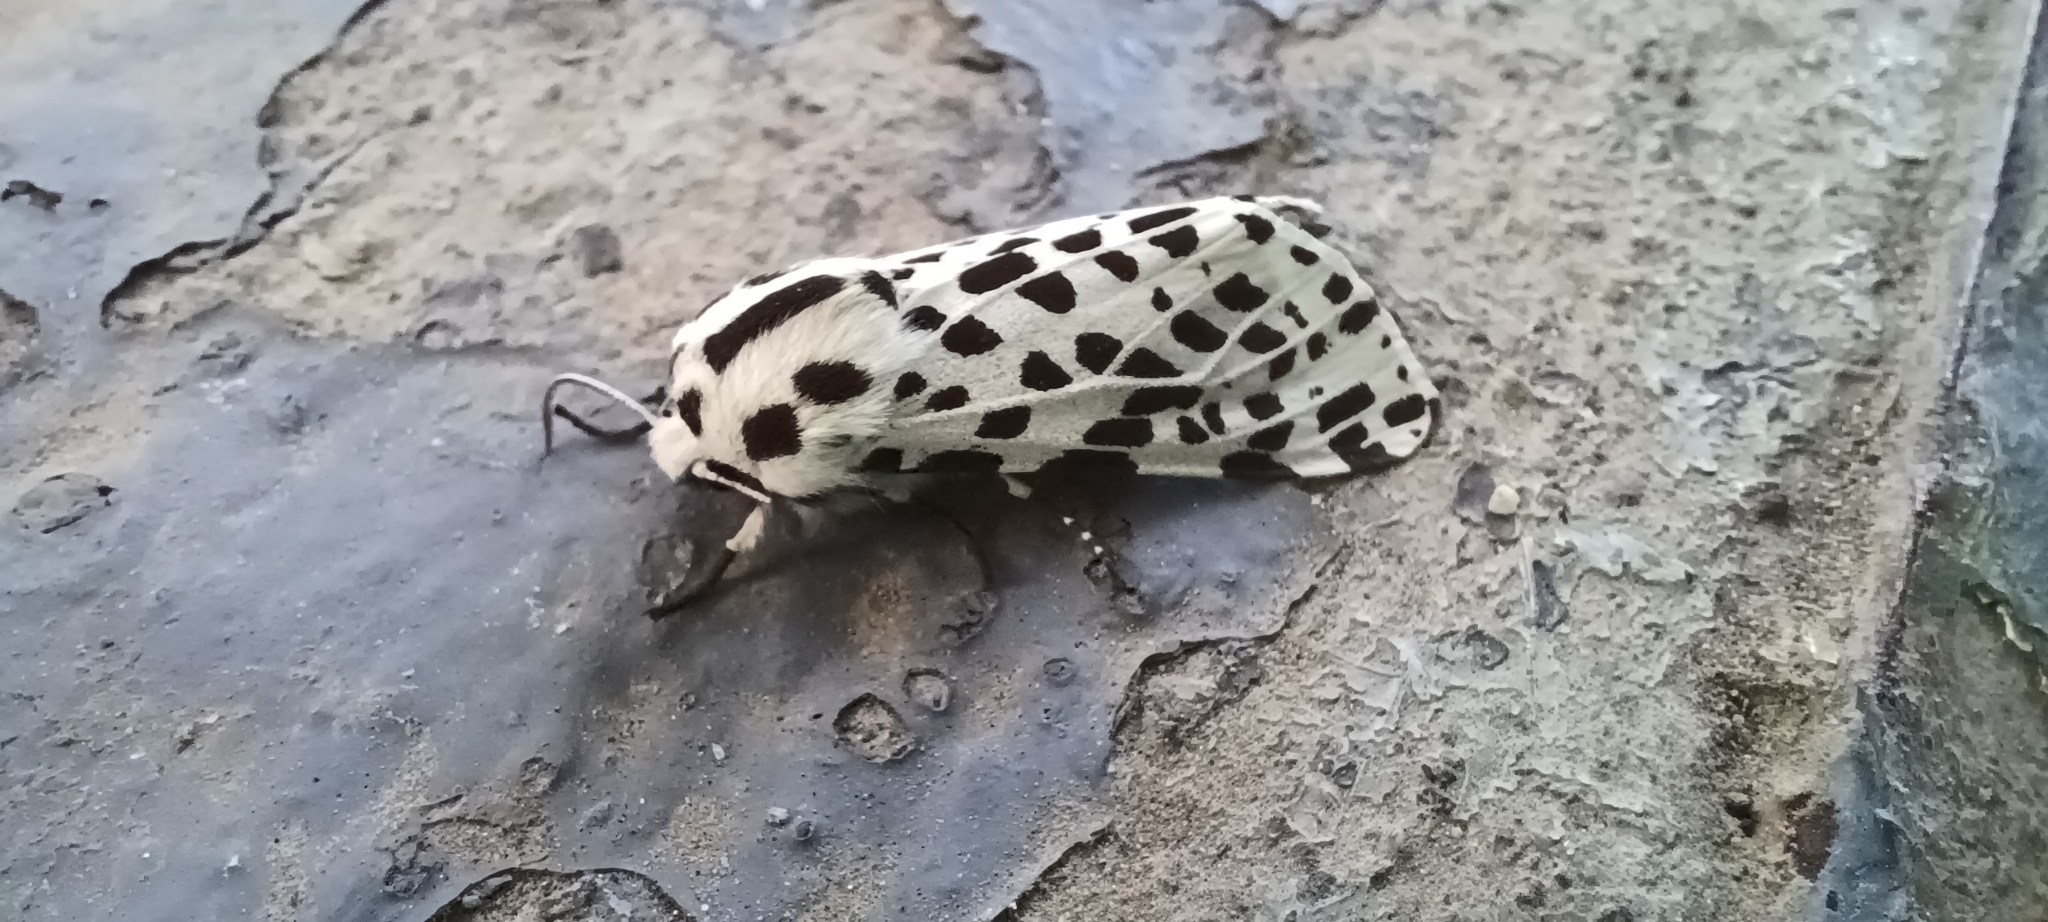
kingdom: Animalia
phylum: Arthropoda
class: Insecta
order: Lepidoptera
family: Erebidae
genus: Hypercompe
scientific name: Hypercompe permaculata
